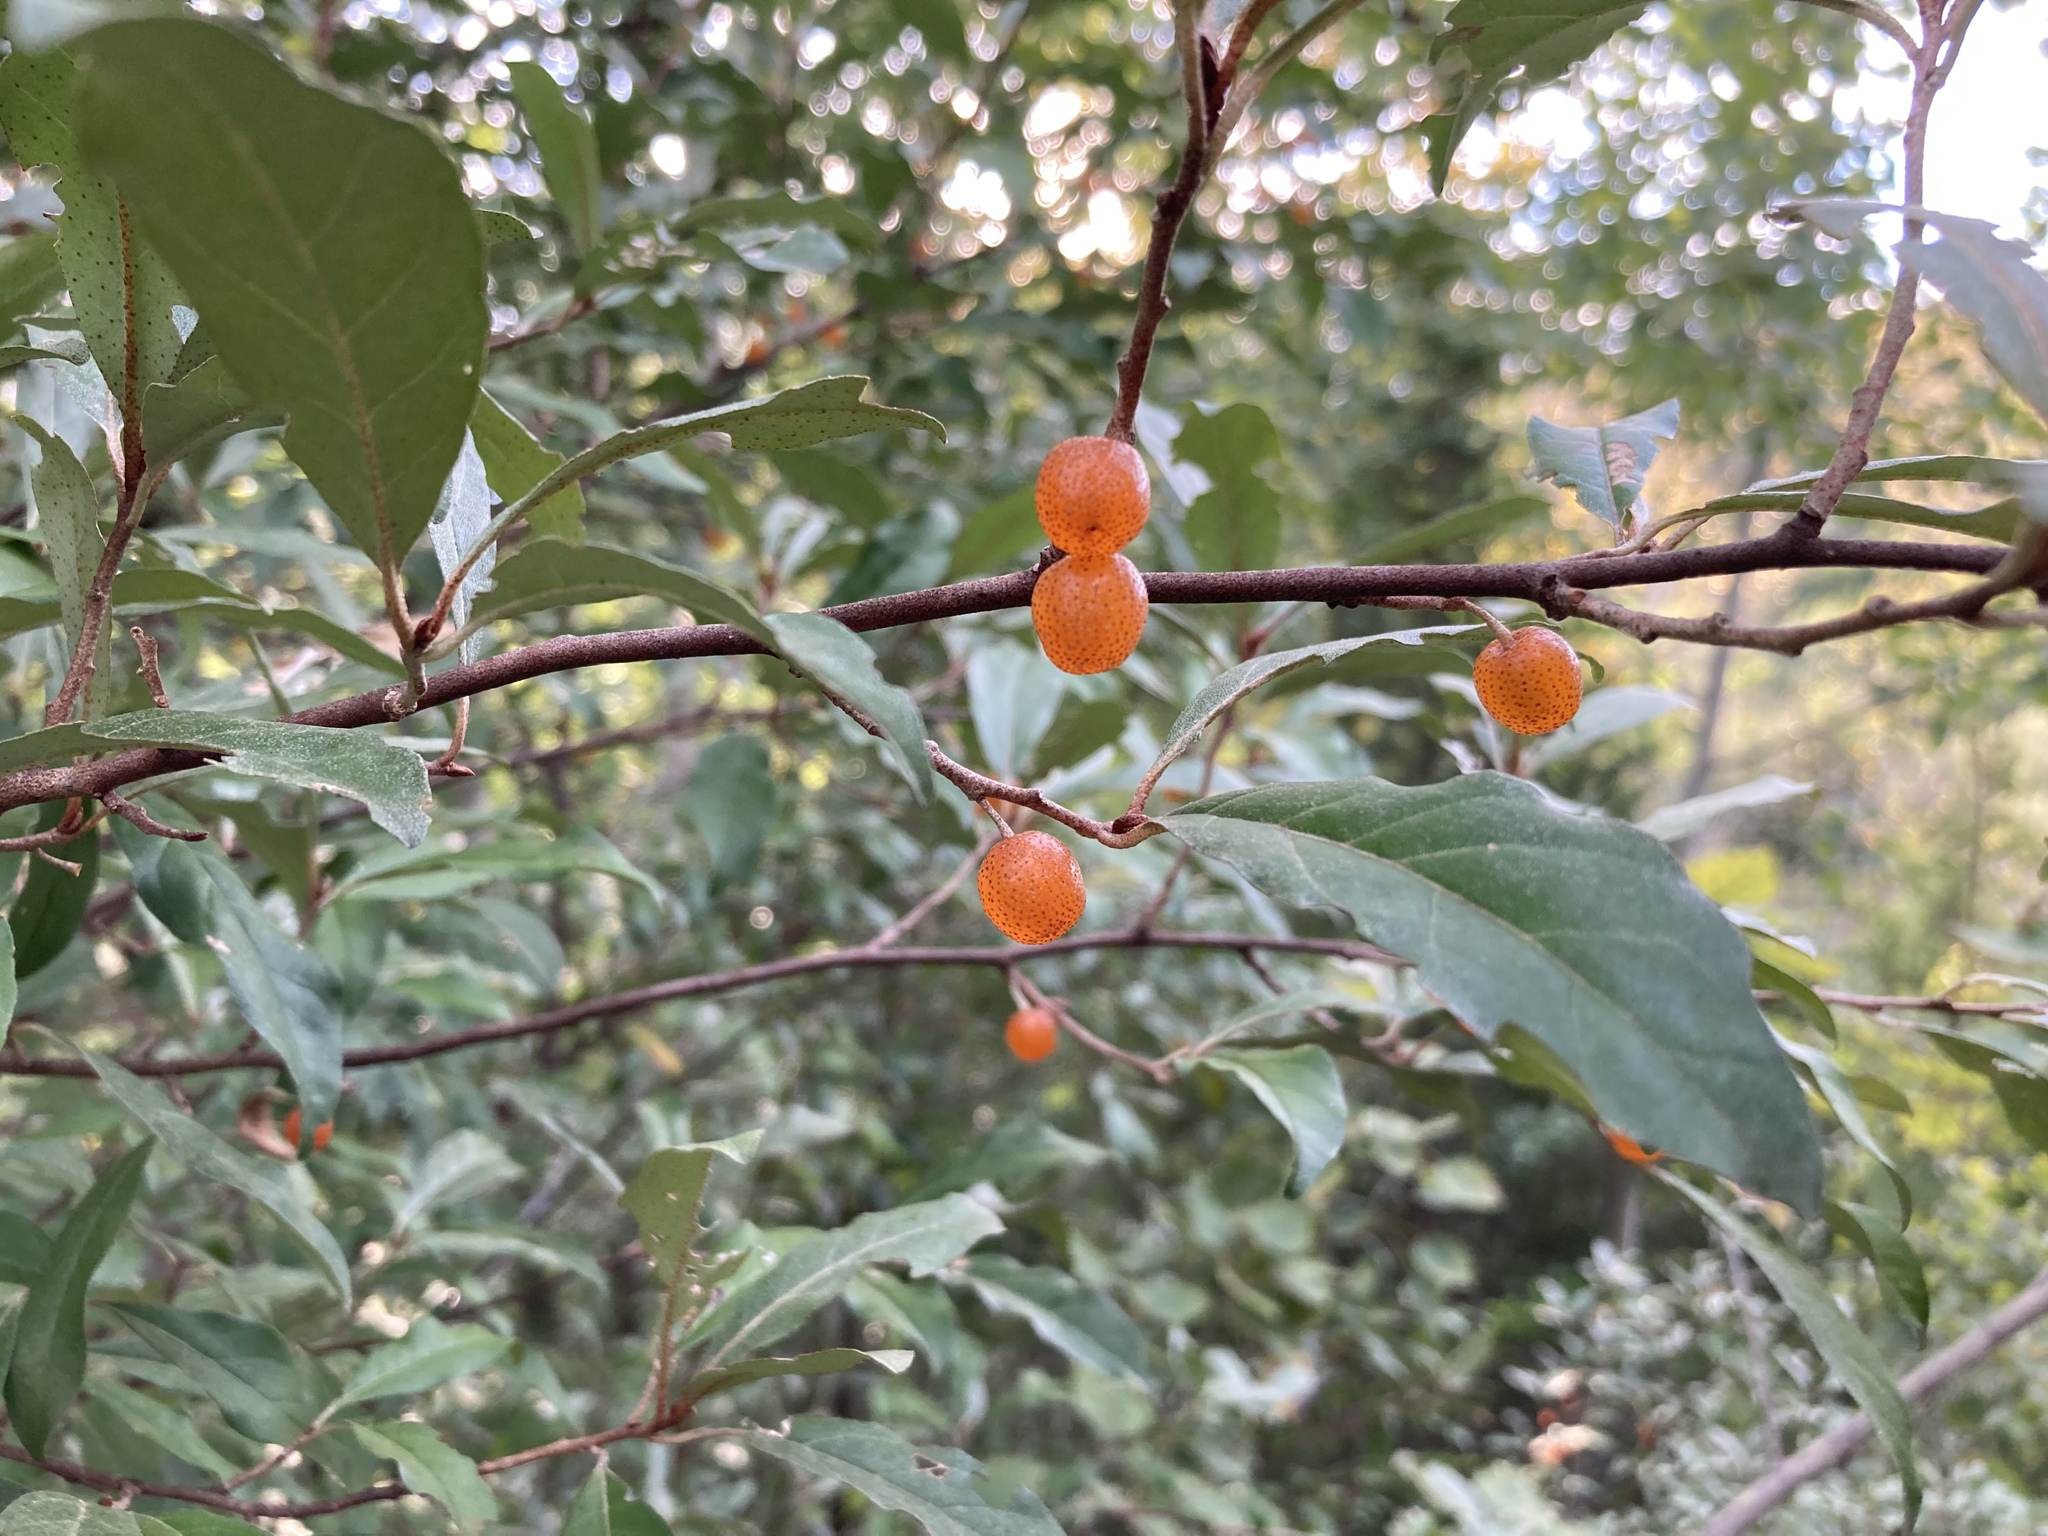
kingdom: Plantae
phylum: Tracheophyta
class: Magnoliopsida
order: Rosales
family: Elaeagnaceae
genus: Elaeagnus
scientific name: Elaeagnus umbellata
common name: Autumn olive
